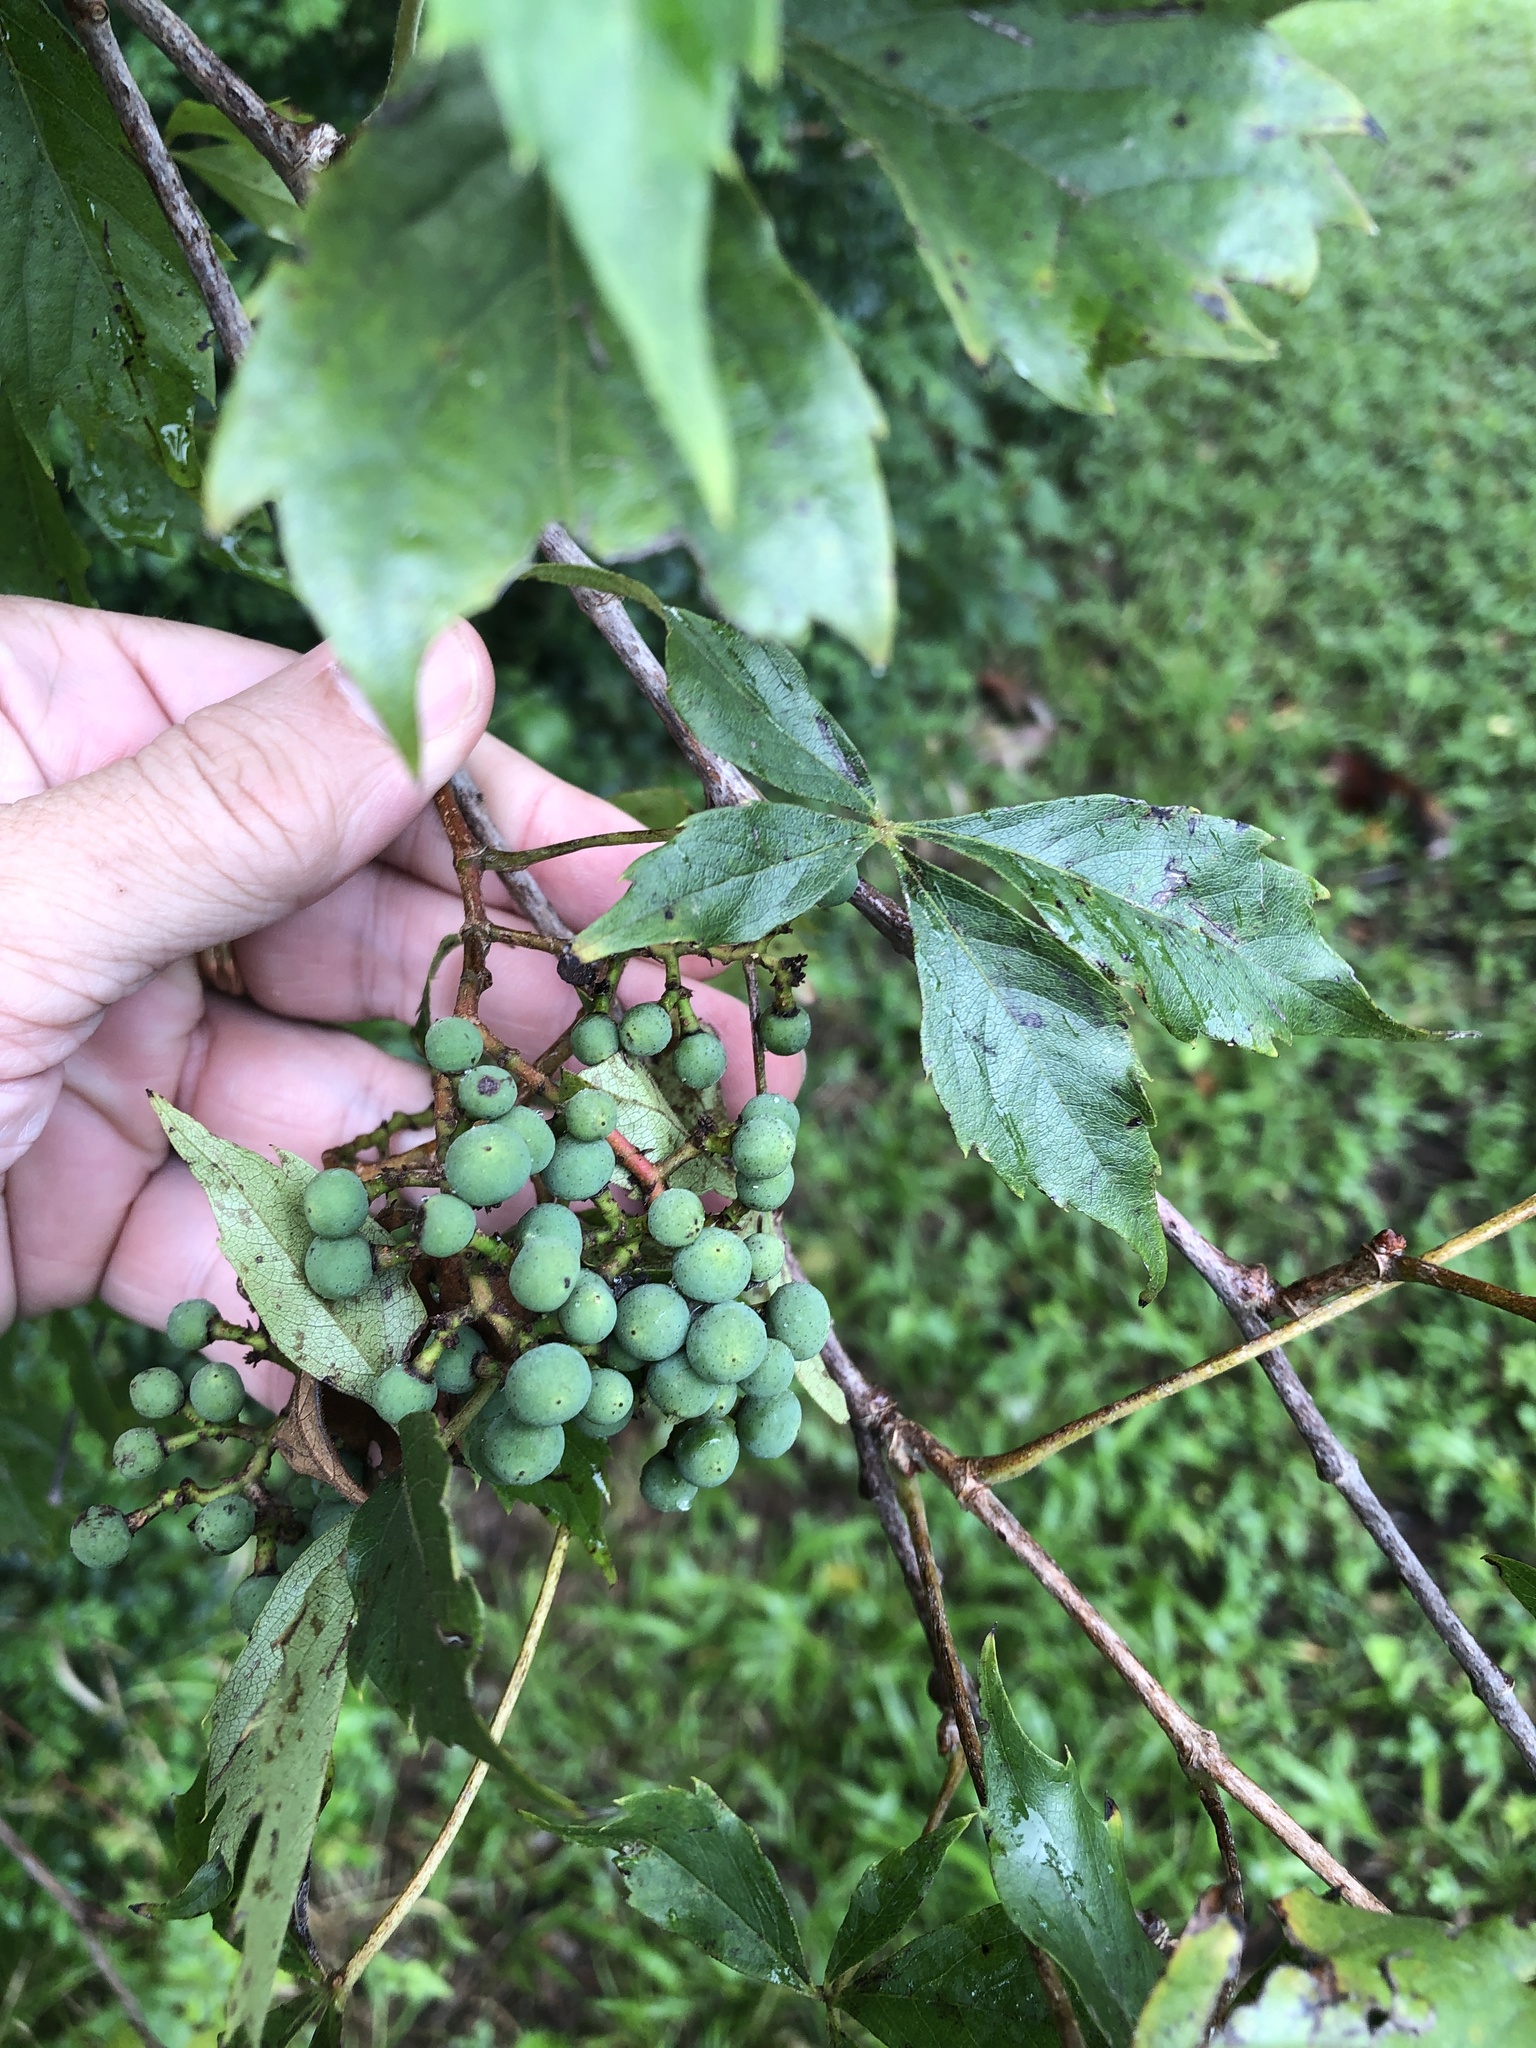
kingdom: Plantae
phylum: Tracheophyta
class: Magnoliopsida
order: Vitales
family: Vitaceae
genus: Parthenocissus
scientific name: Parthenocissus quinquefolia
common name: Virginia-creeper
